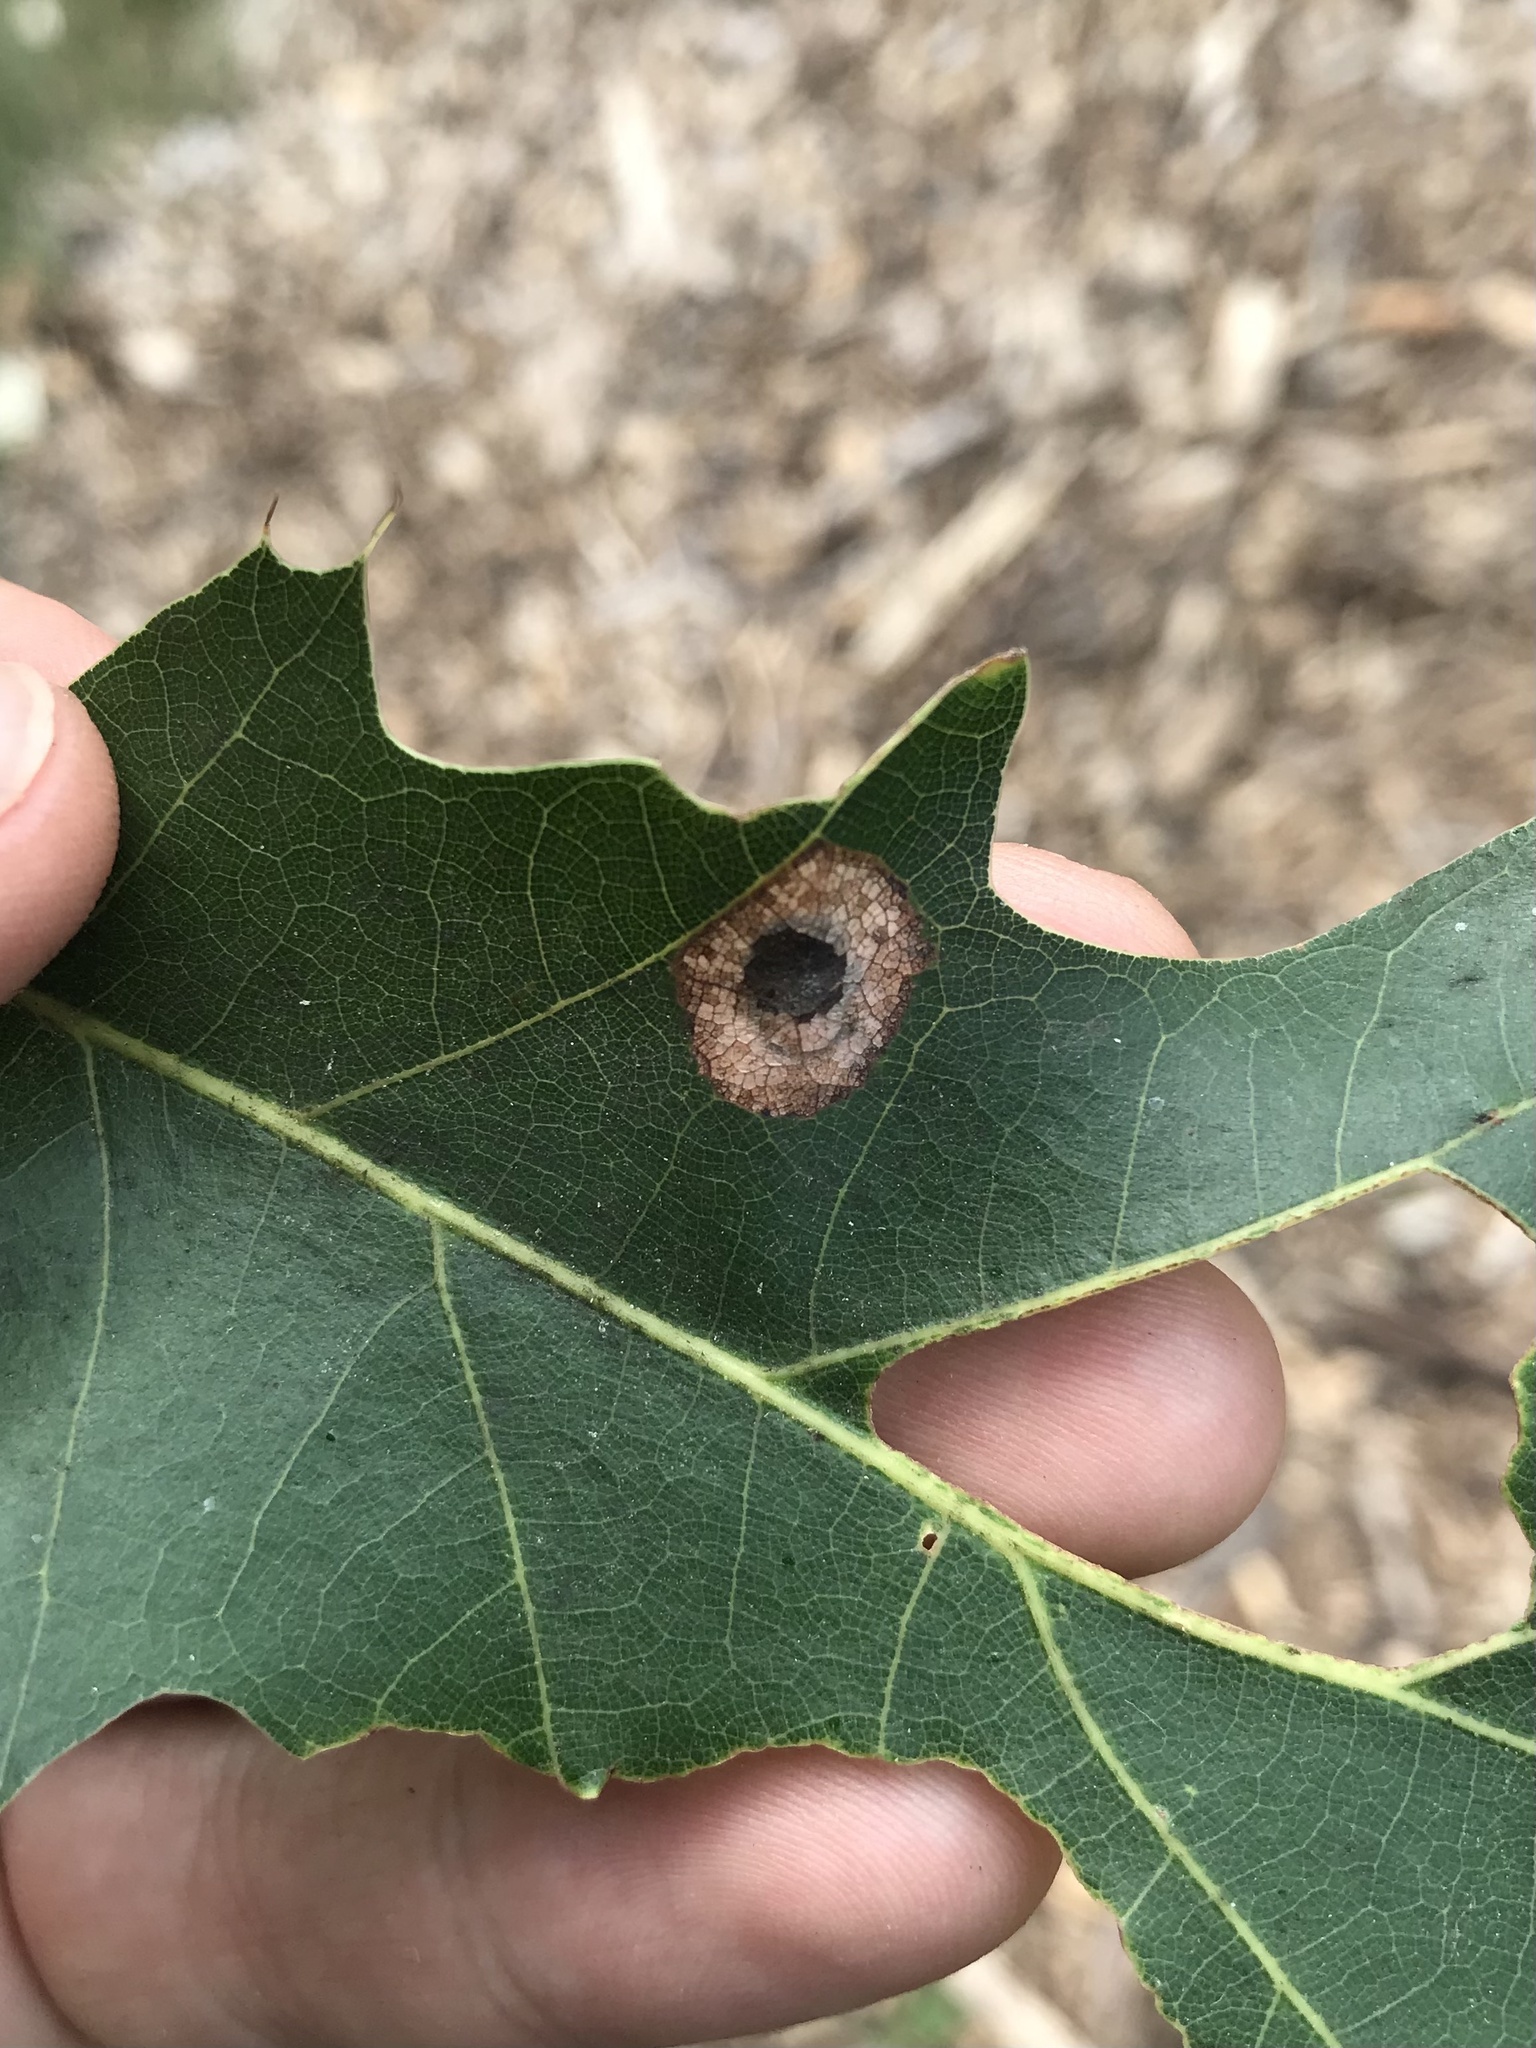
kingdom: Animalia
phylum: Arthropoda
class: Insecta
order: Lepidoptera
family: Gracillariidae
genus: Phyllonorycter
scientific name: Phyllonorycter basistrigella
